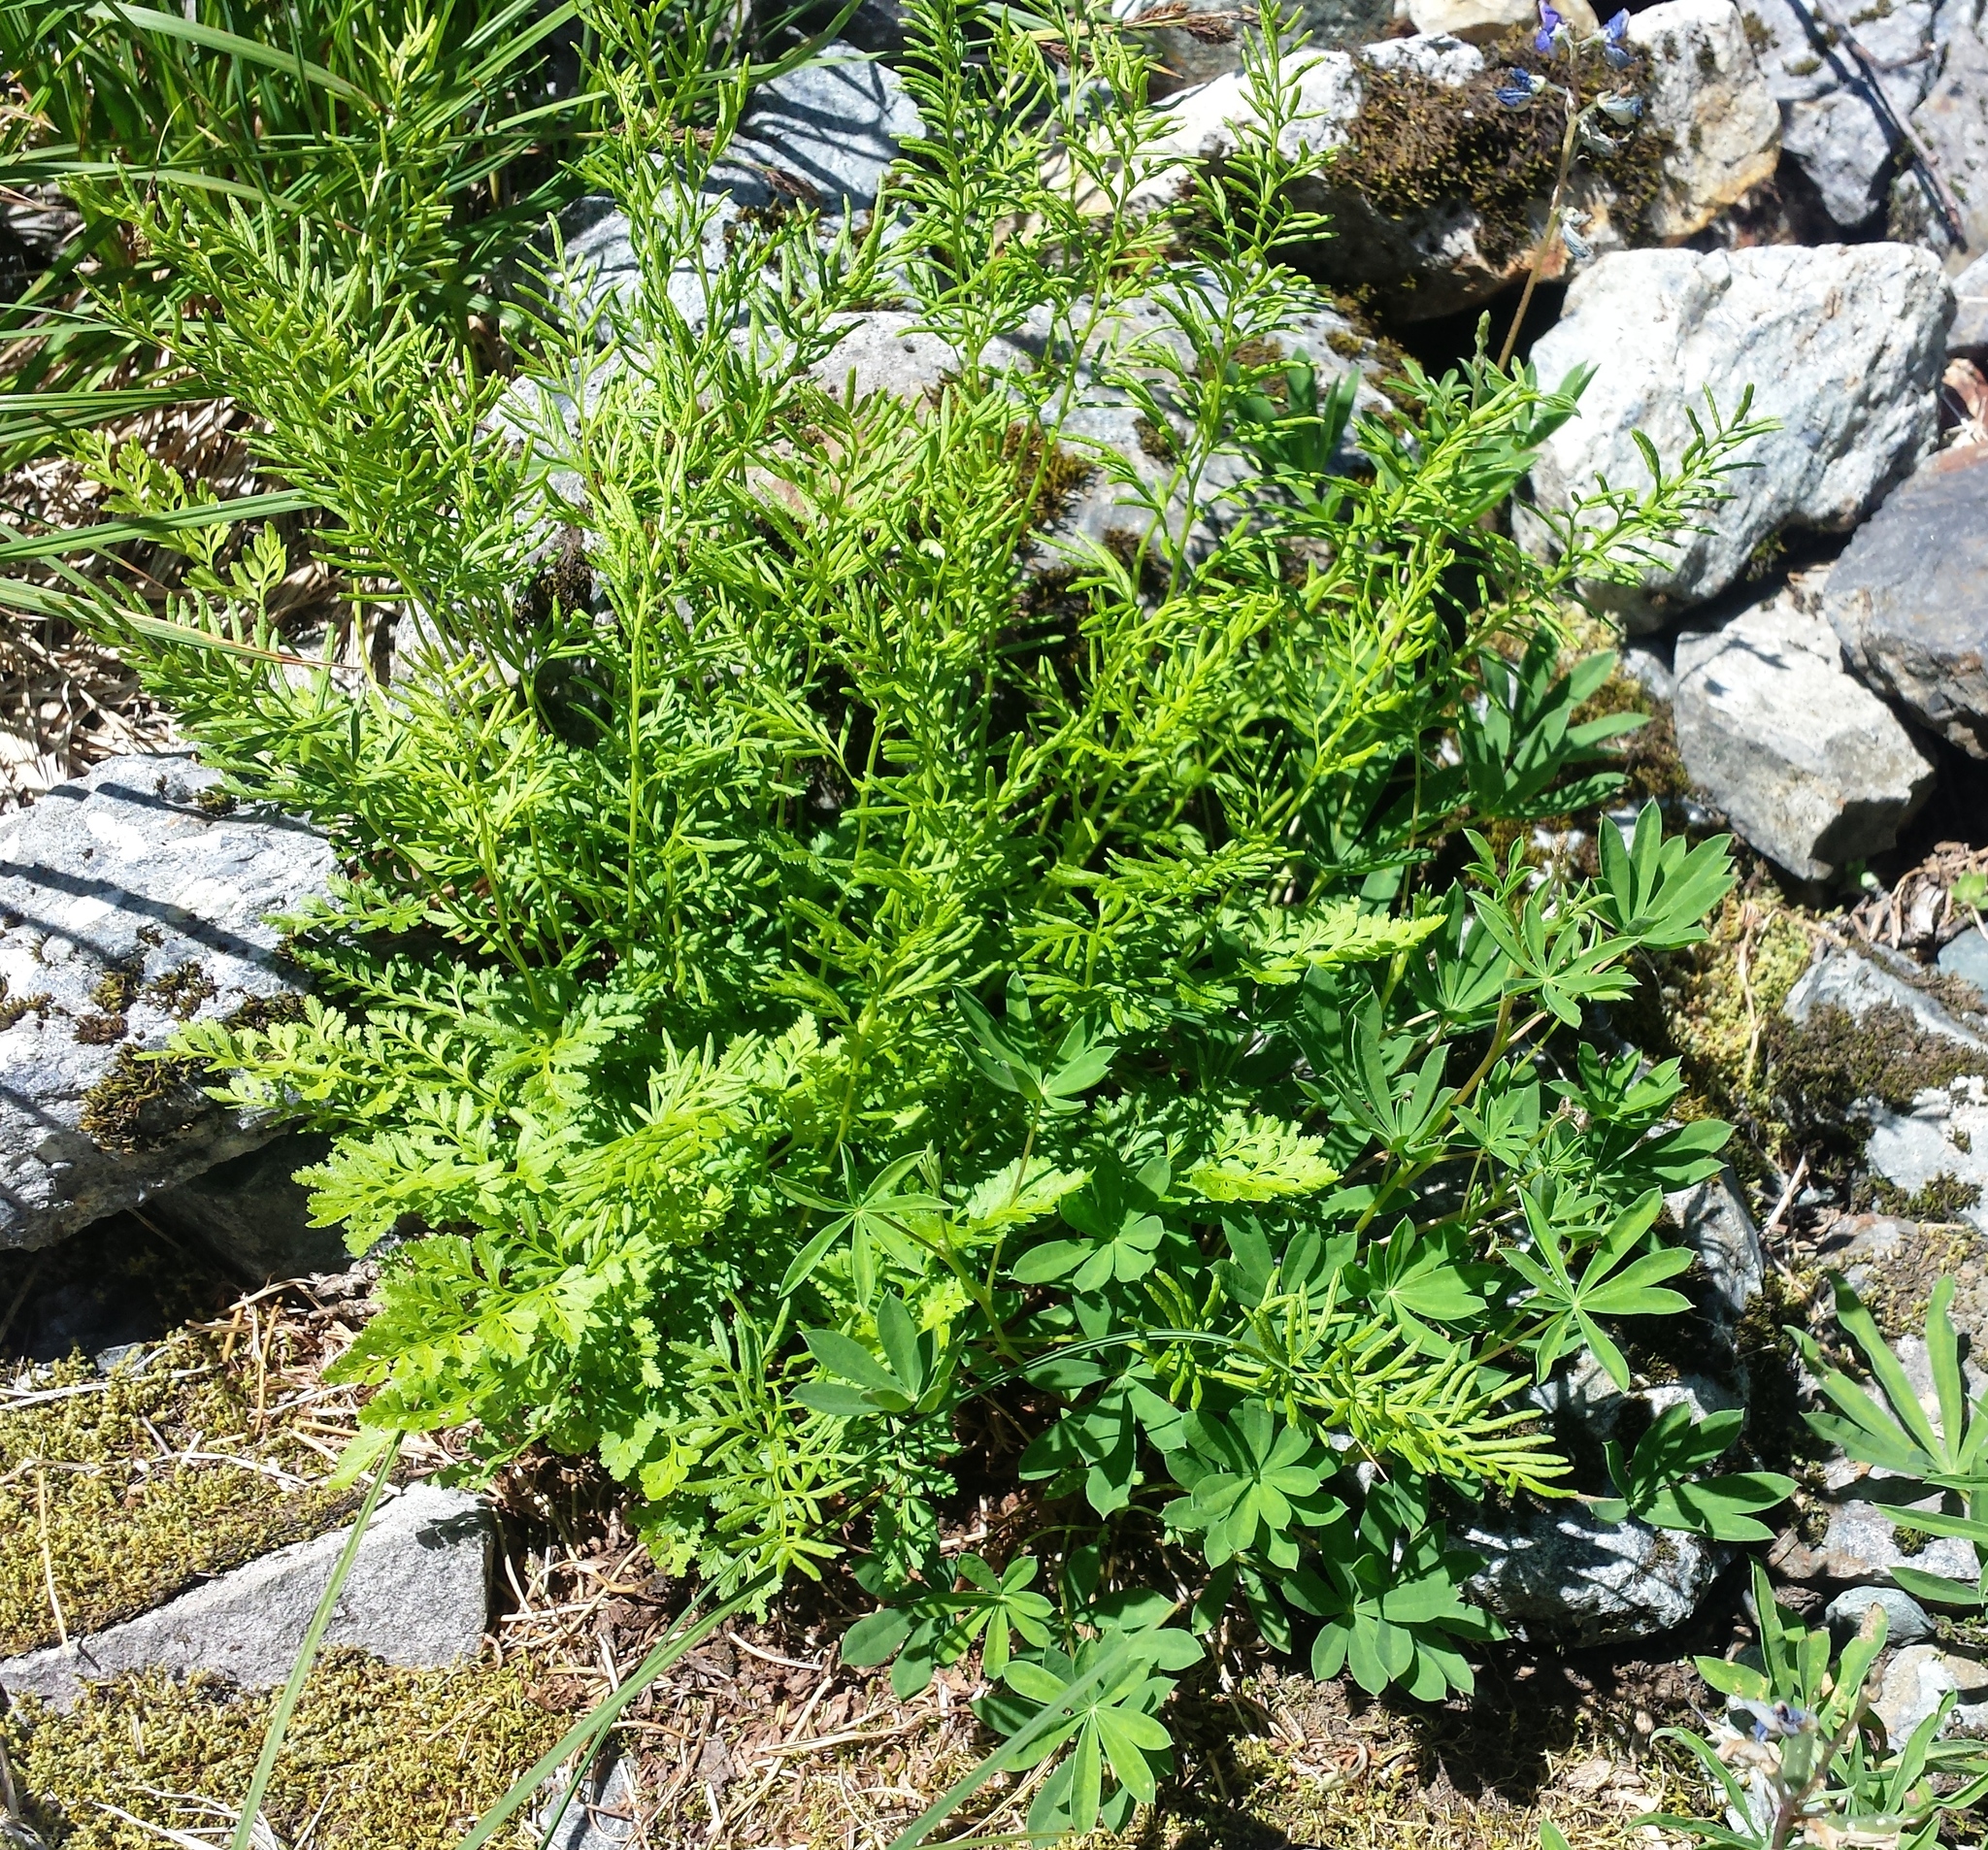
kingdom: Plantae
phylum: Tracheophyta
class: Polypodiopsida
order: Polypodiales
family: Pteridaceae
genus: Cryptogramma
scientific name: Cryptogramma acrostichoides
